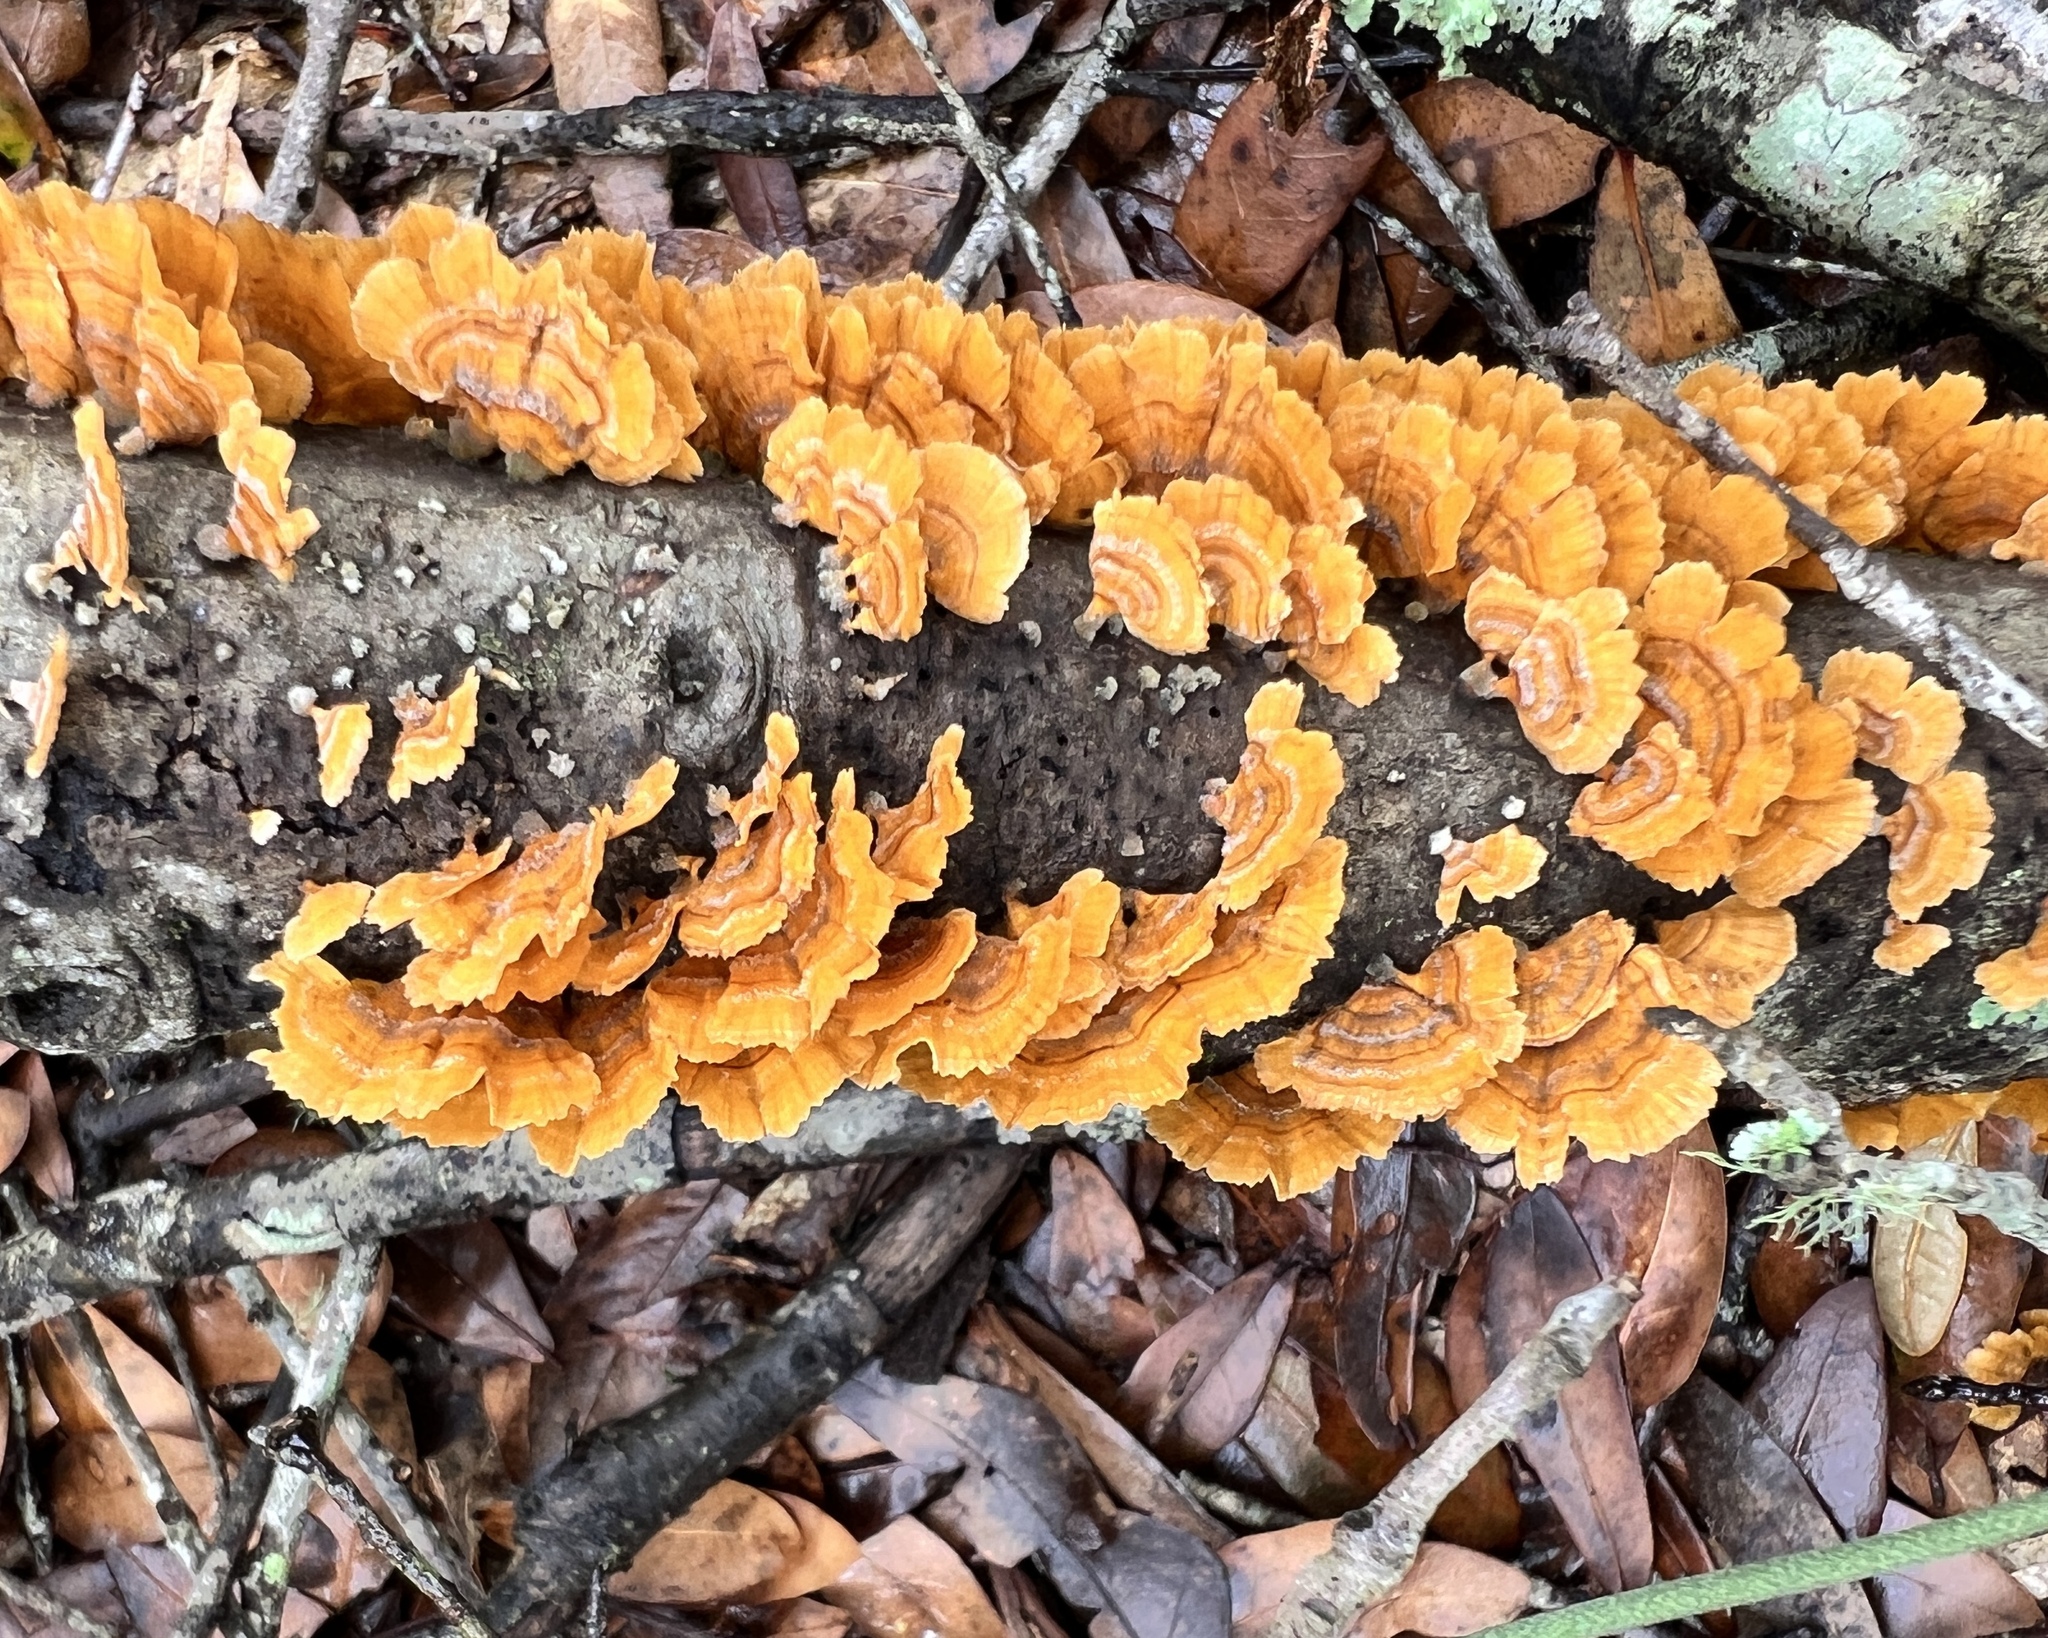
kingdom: Fungi
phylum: Basidiomycota
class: Agaricomycetes
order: Russulales
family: Stereaceae
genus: Stereum
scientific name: Stereum complicatum
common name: Crowded parchment
